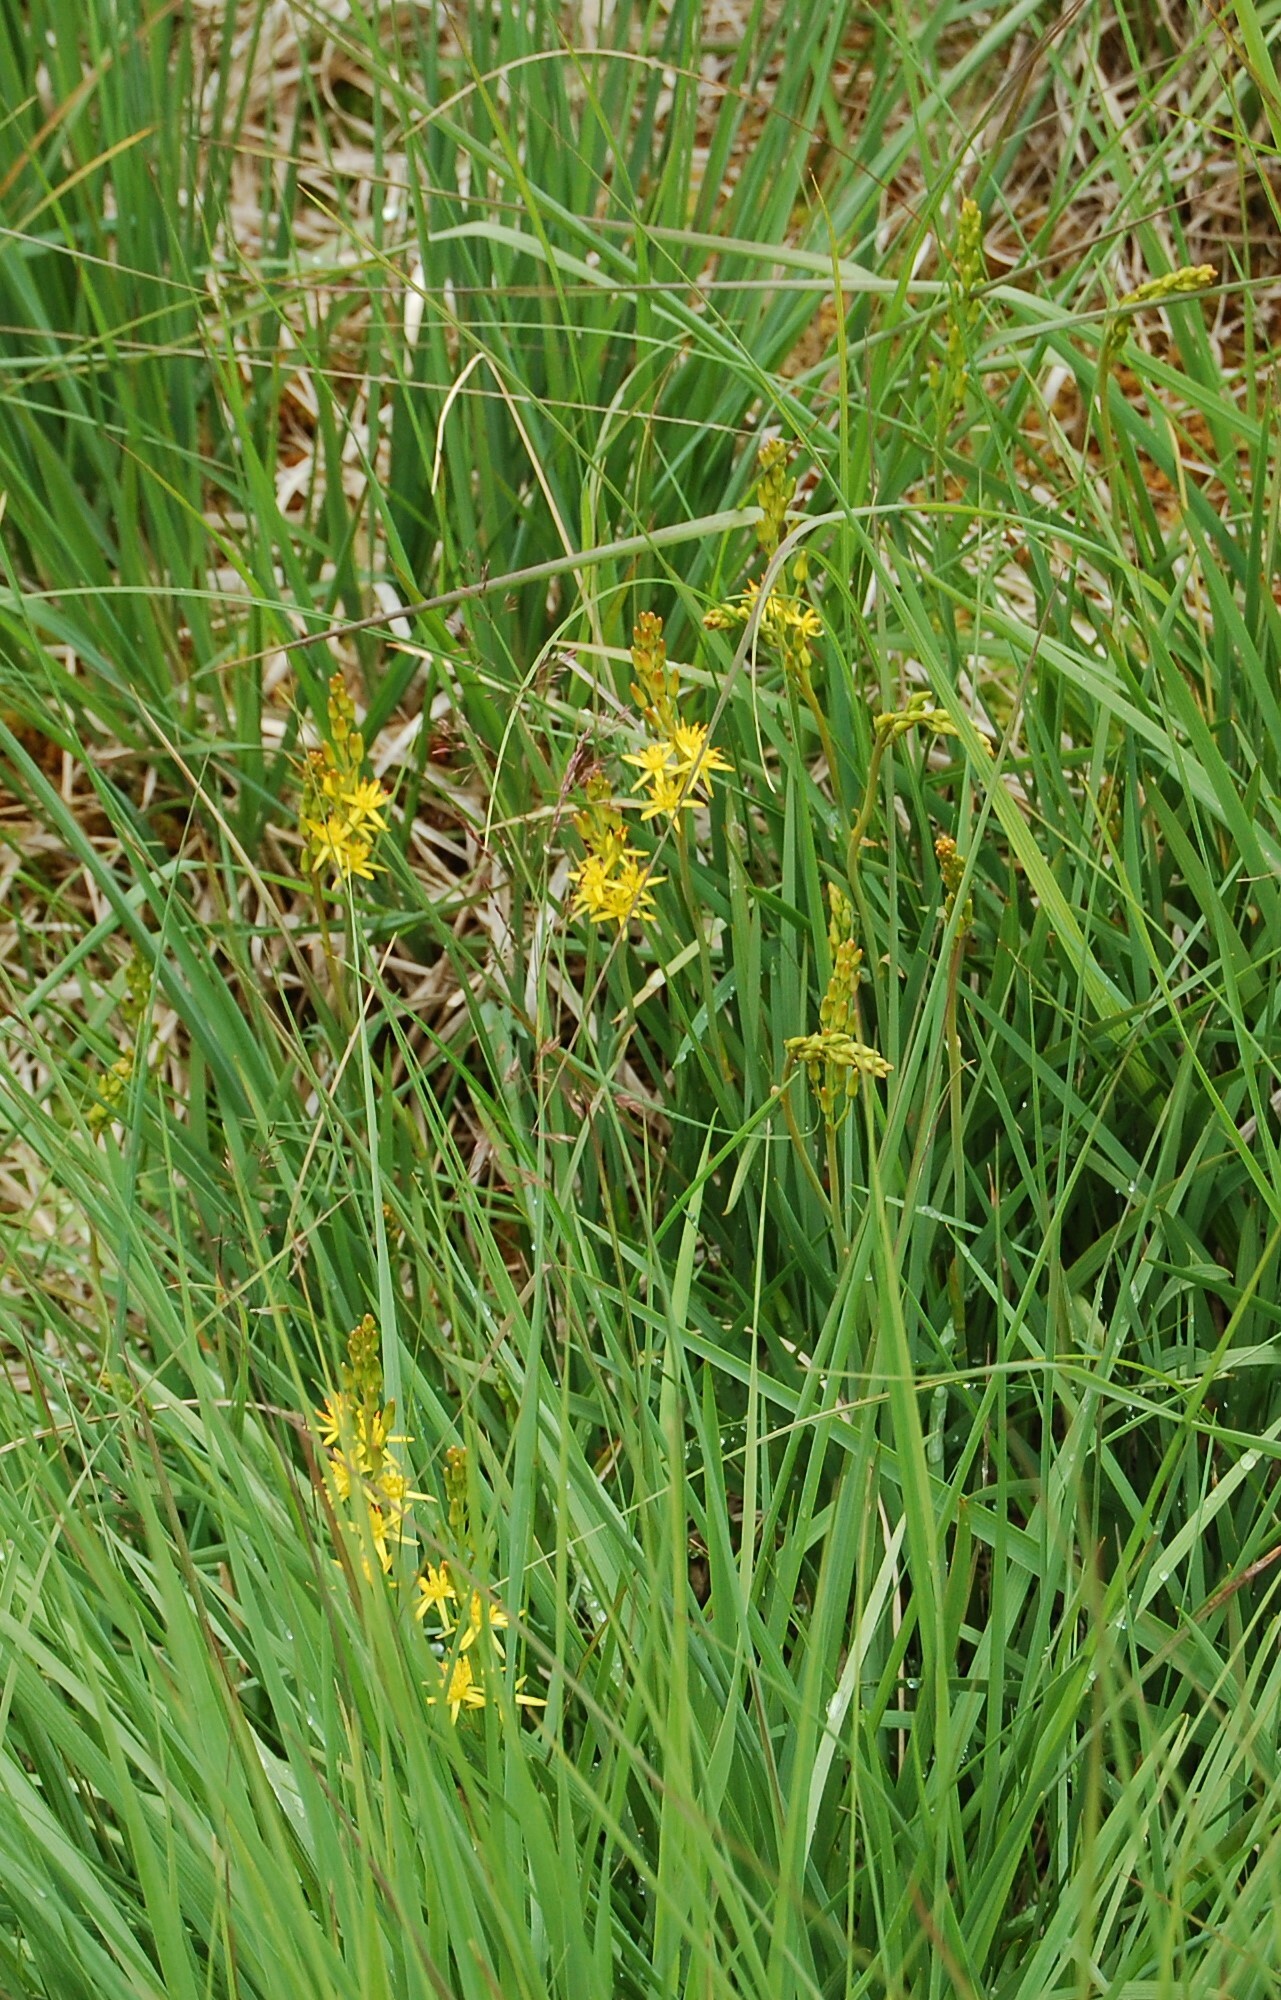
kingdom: Plantae
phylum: Tracheophyta
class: Liliopsida
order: Dioscoreales
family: Nartheciaceae
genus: Narthecium
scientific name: Narthecium ossifragum
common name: Bog asphodel
